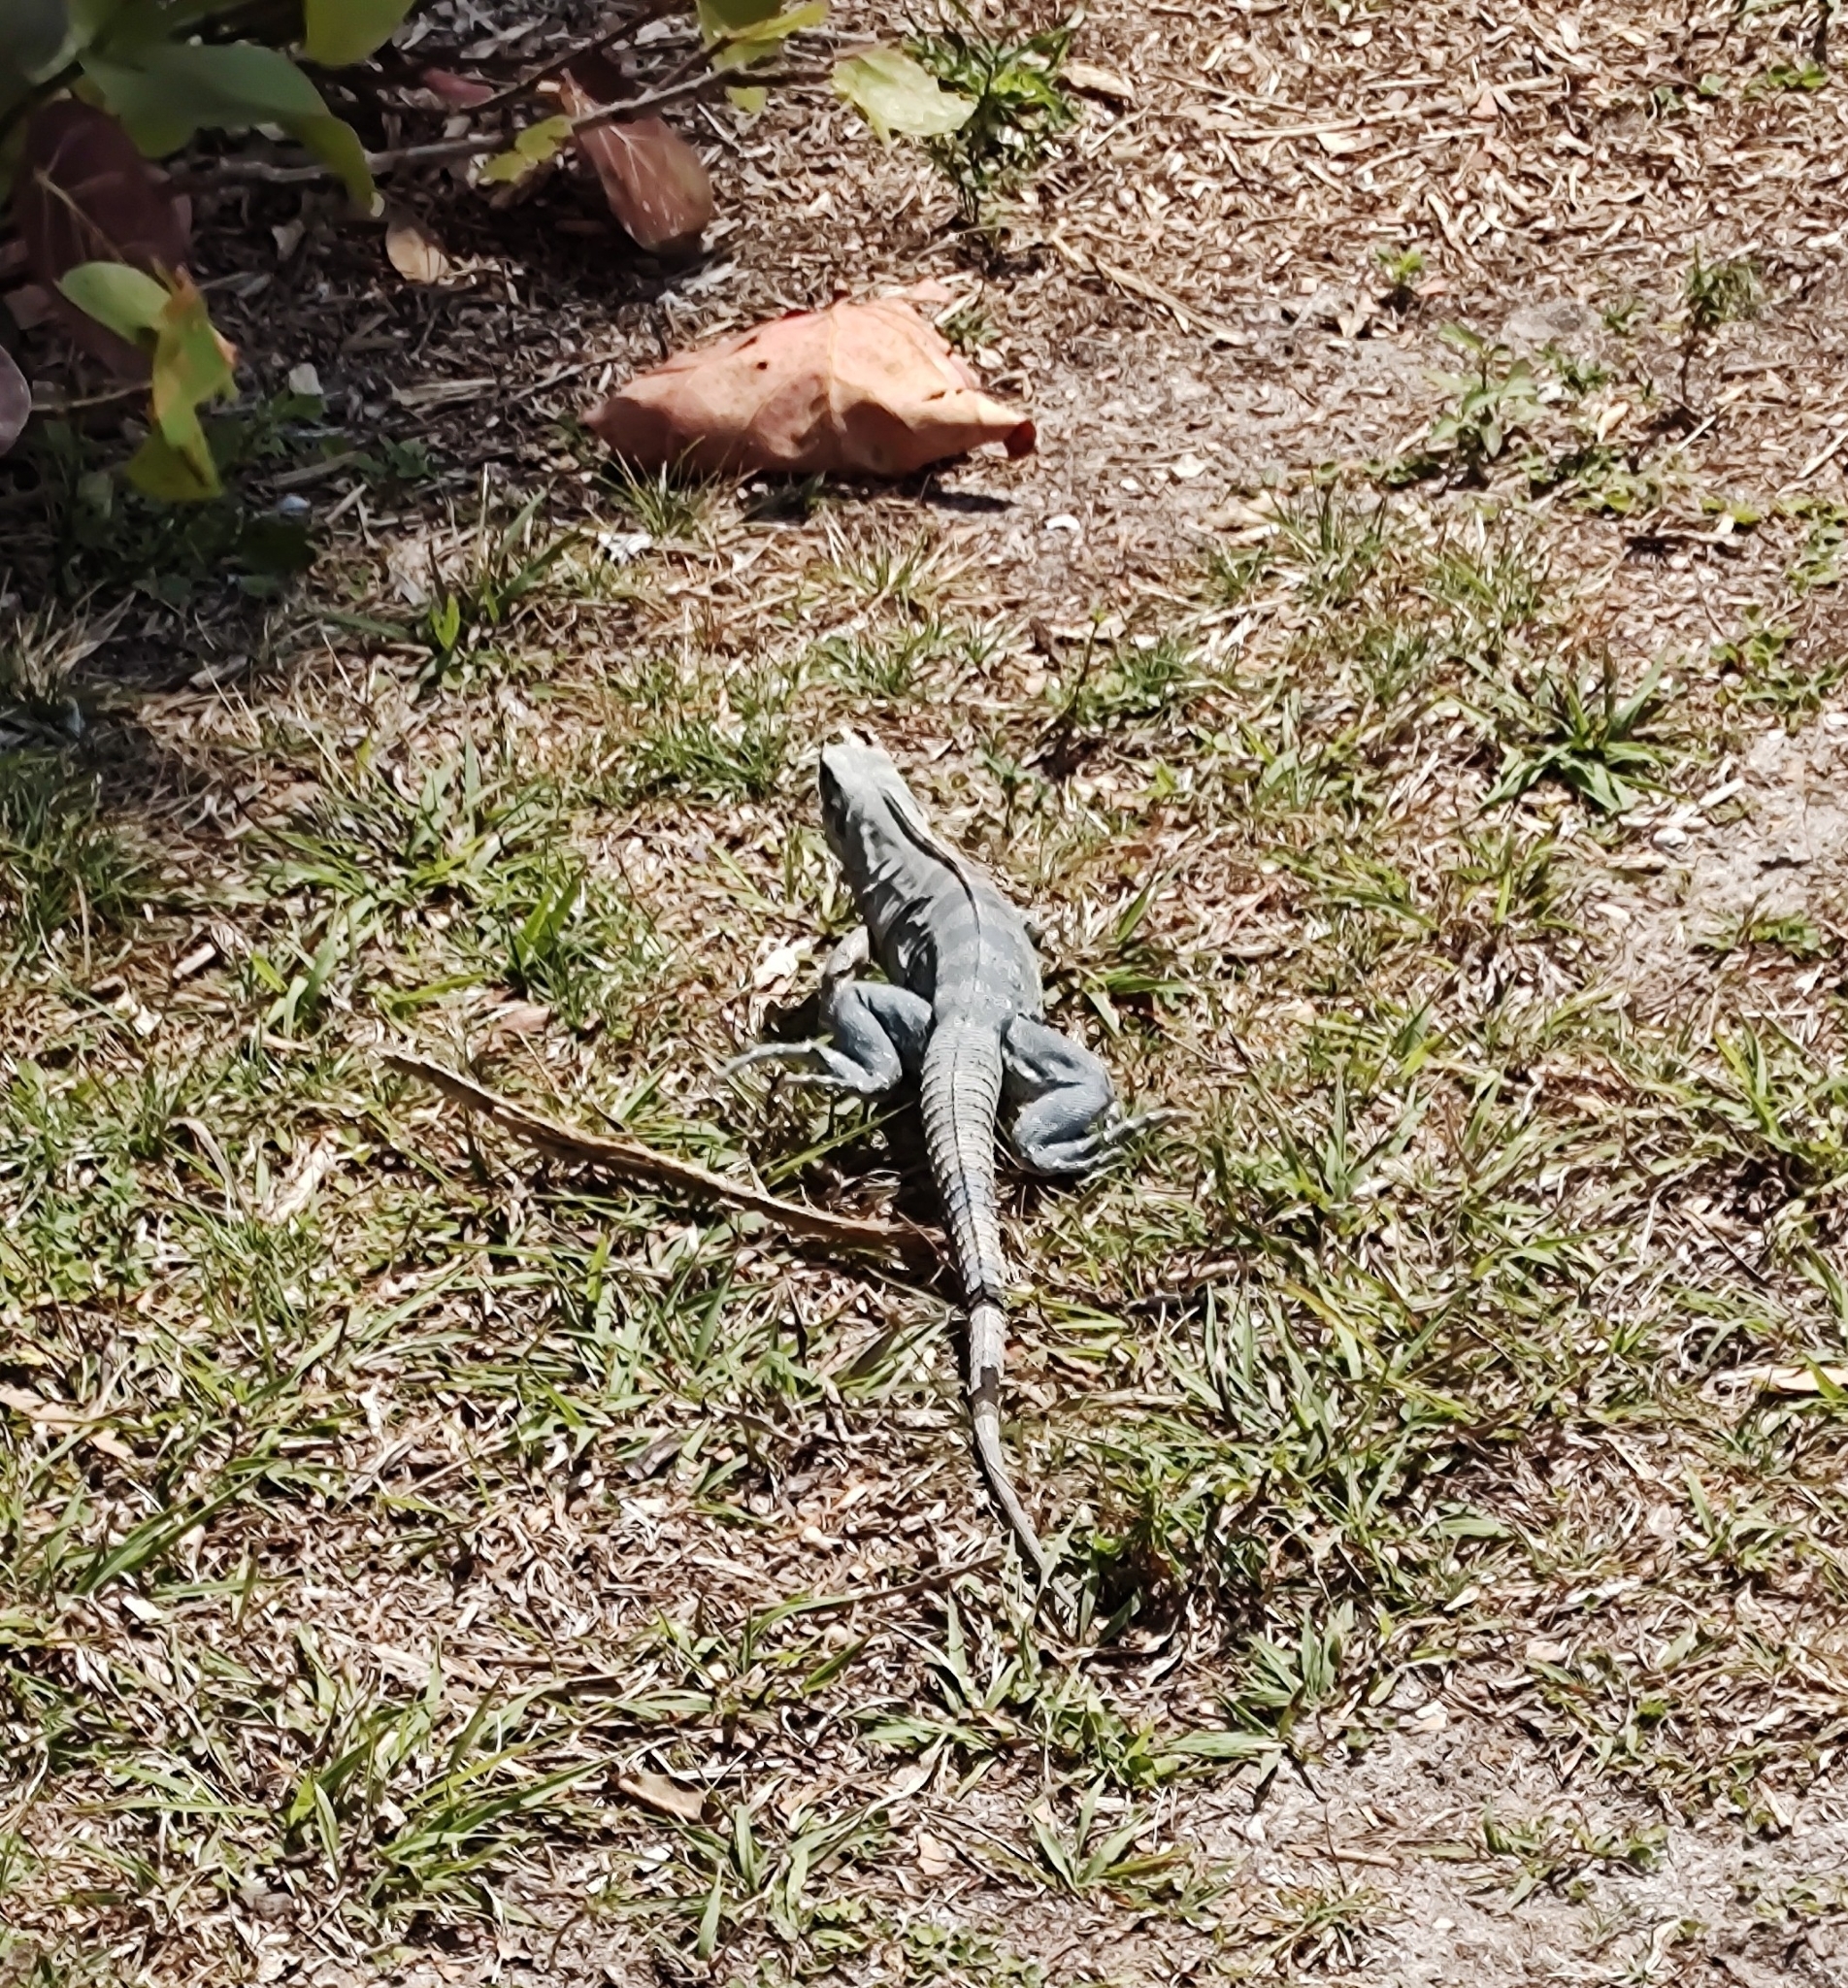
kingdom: Animalia
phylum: Chordata
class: Squamata
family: Iguanidae
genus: Ctenosaura
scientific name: Ctenosaura similis
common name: Black spiny-tailed iguana
